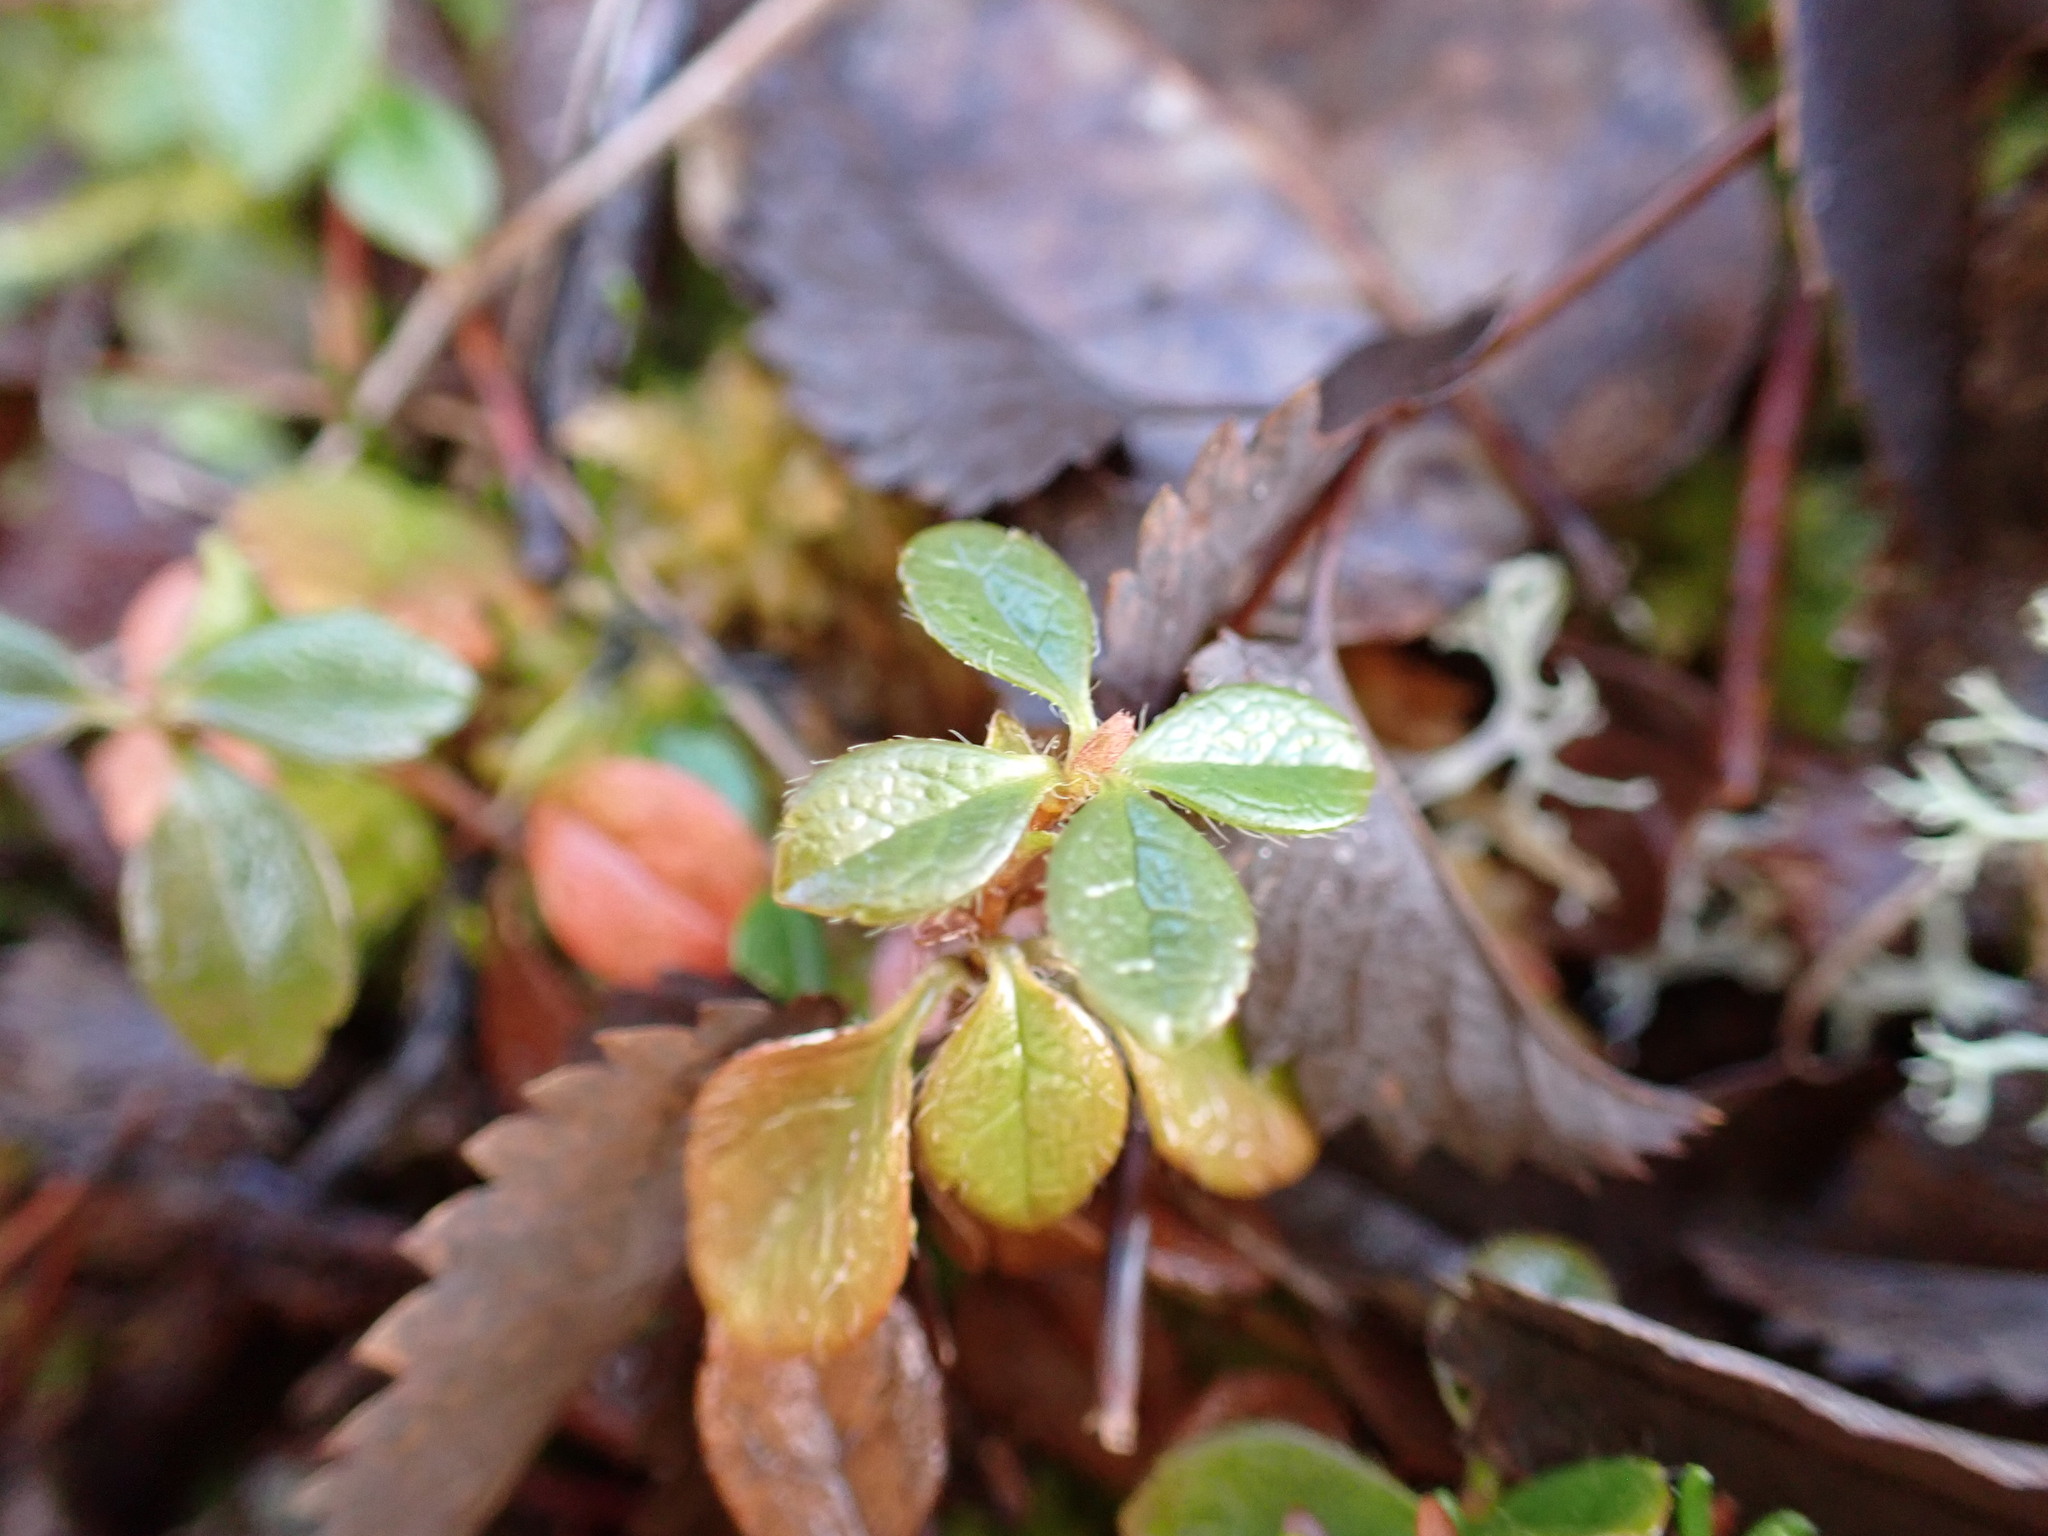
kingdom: Plantae
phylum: Tracheophyta
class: Magnoliopsida
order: Dipsacales
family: Caprifoliaceae
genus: Linnaea
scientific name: Linnaea borealis
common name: Twinflower
